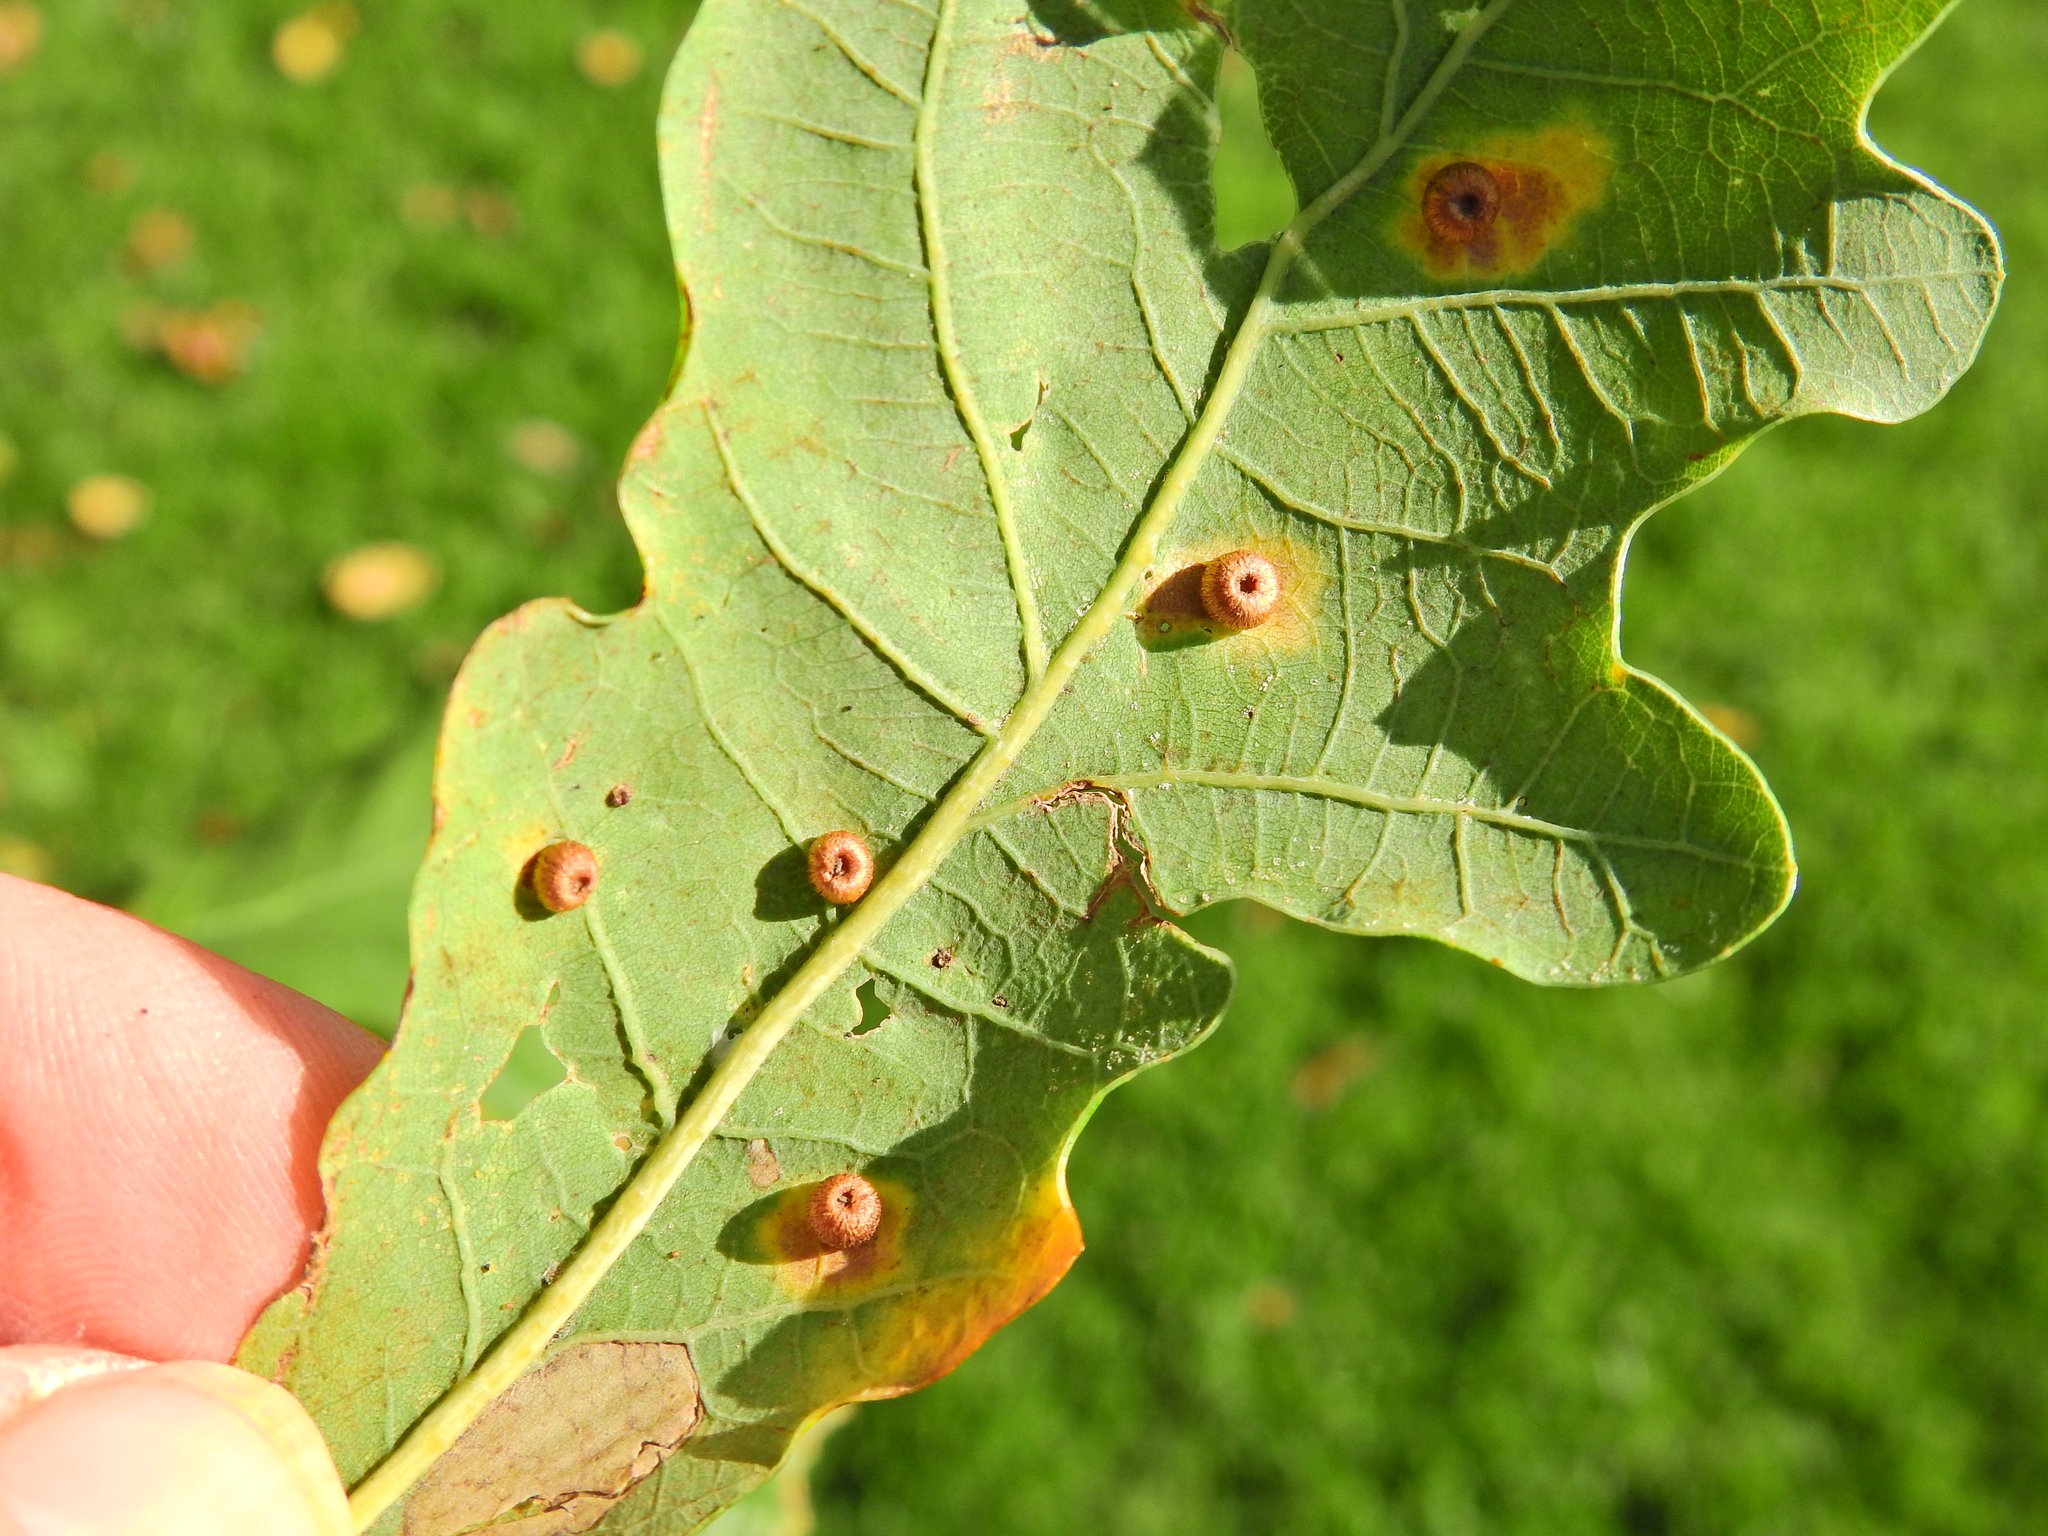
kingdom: Animalia
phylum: Arthropoda
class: Insecta
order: Hymenoptera
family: Cynipidae
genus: Neuroterus
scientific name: Neuroterus numismalis
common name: Silk-button spangle gall
